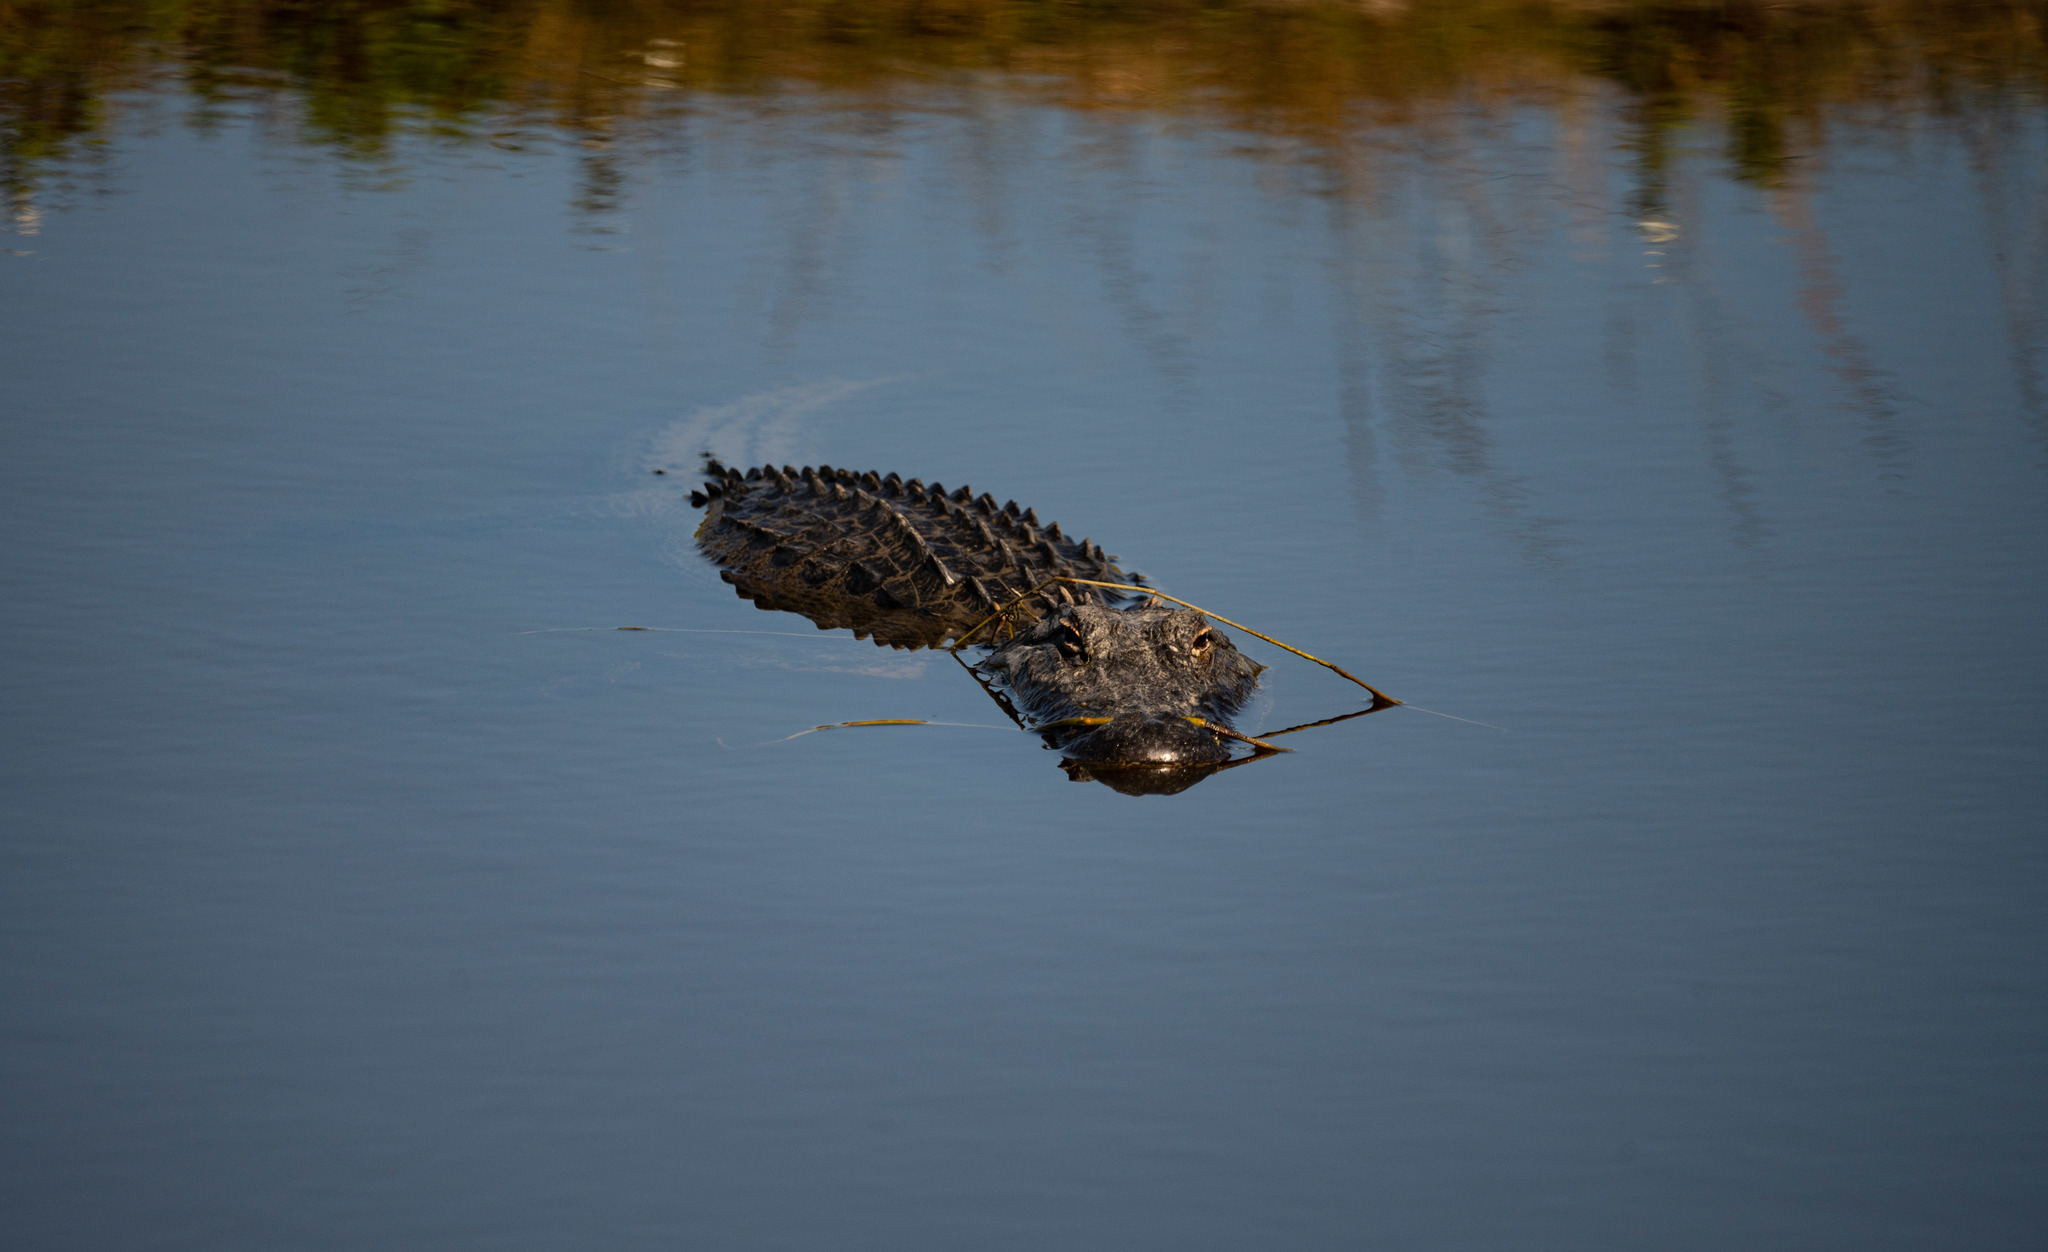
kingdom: Animalia
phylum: Chordata
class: Crocodylia
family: Alligatoridae
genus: Alligator
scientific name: Alligator mississippiensis
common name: American alligator
